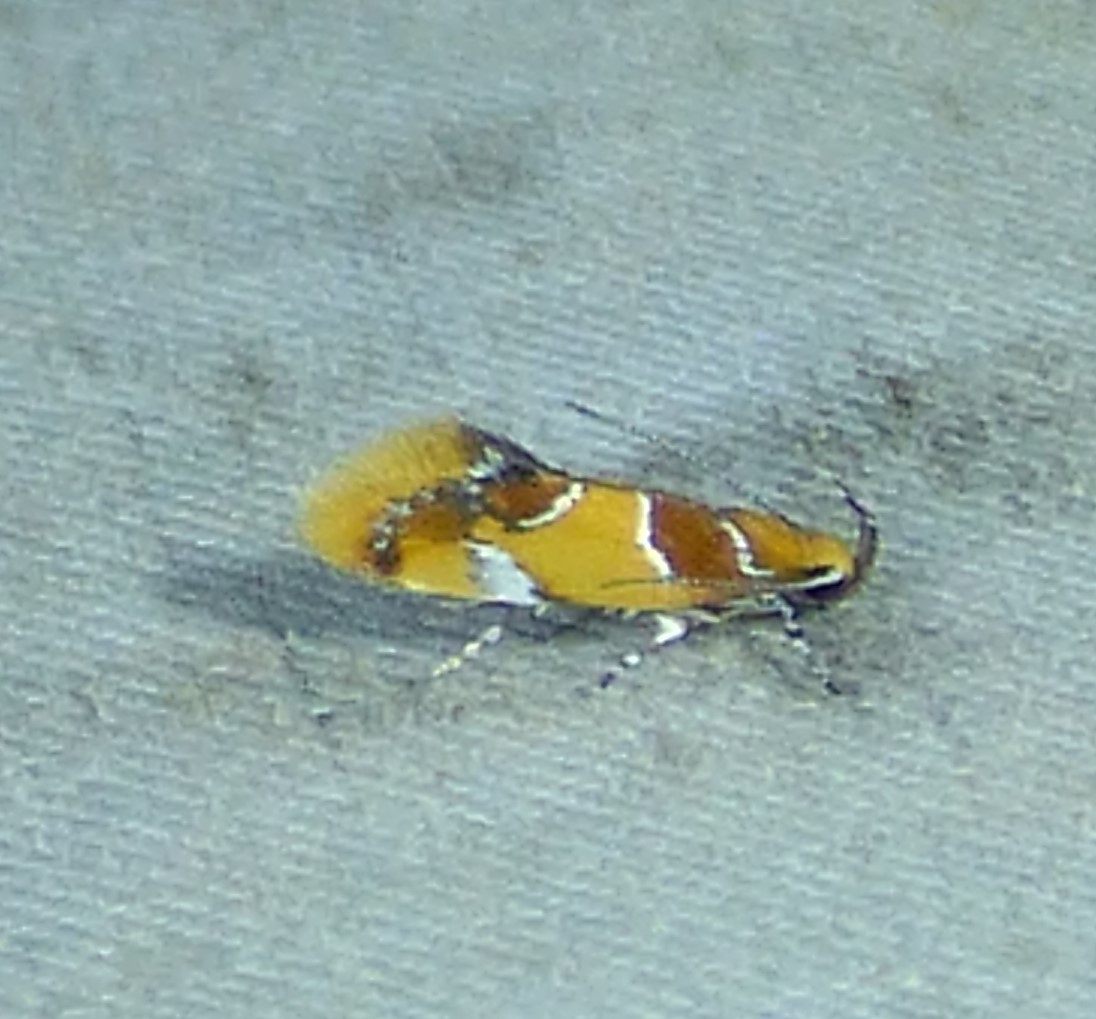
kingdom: Animalia
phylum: Arthropoda
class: Insecta
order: Lepidoptera
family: Oecophoridae
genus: Callima
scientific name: Callima argenticinctella
